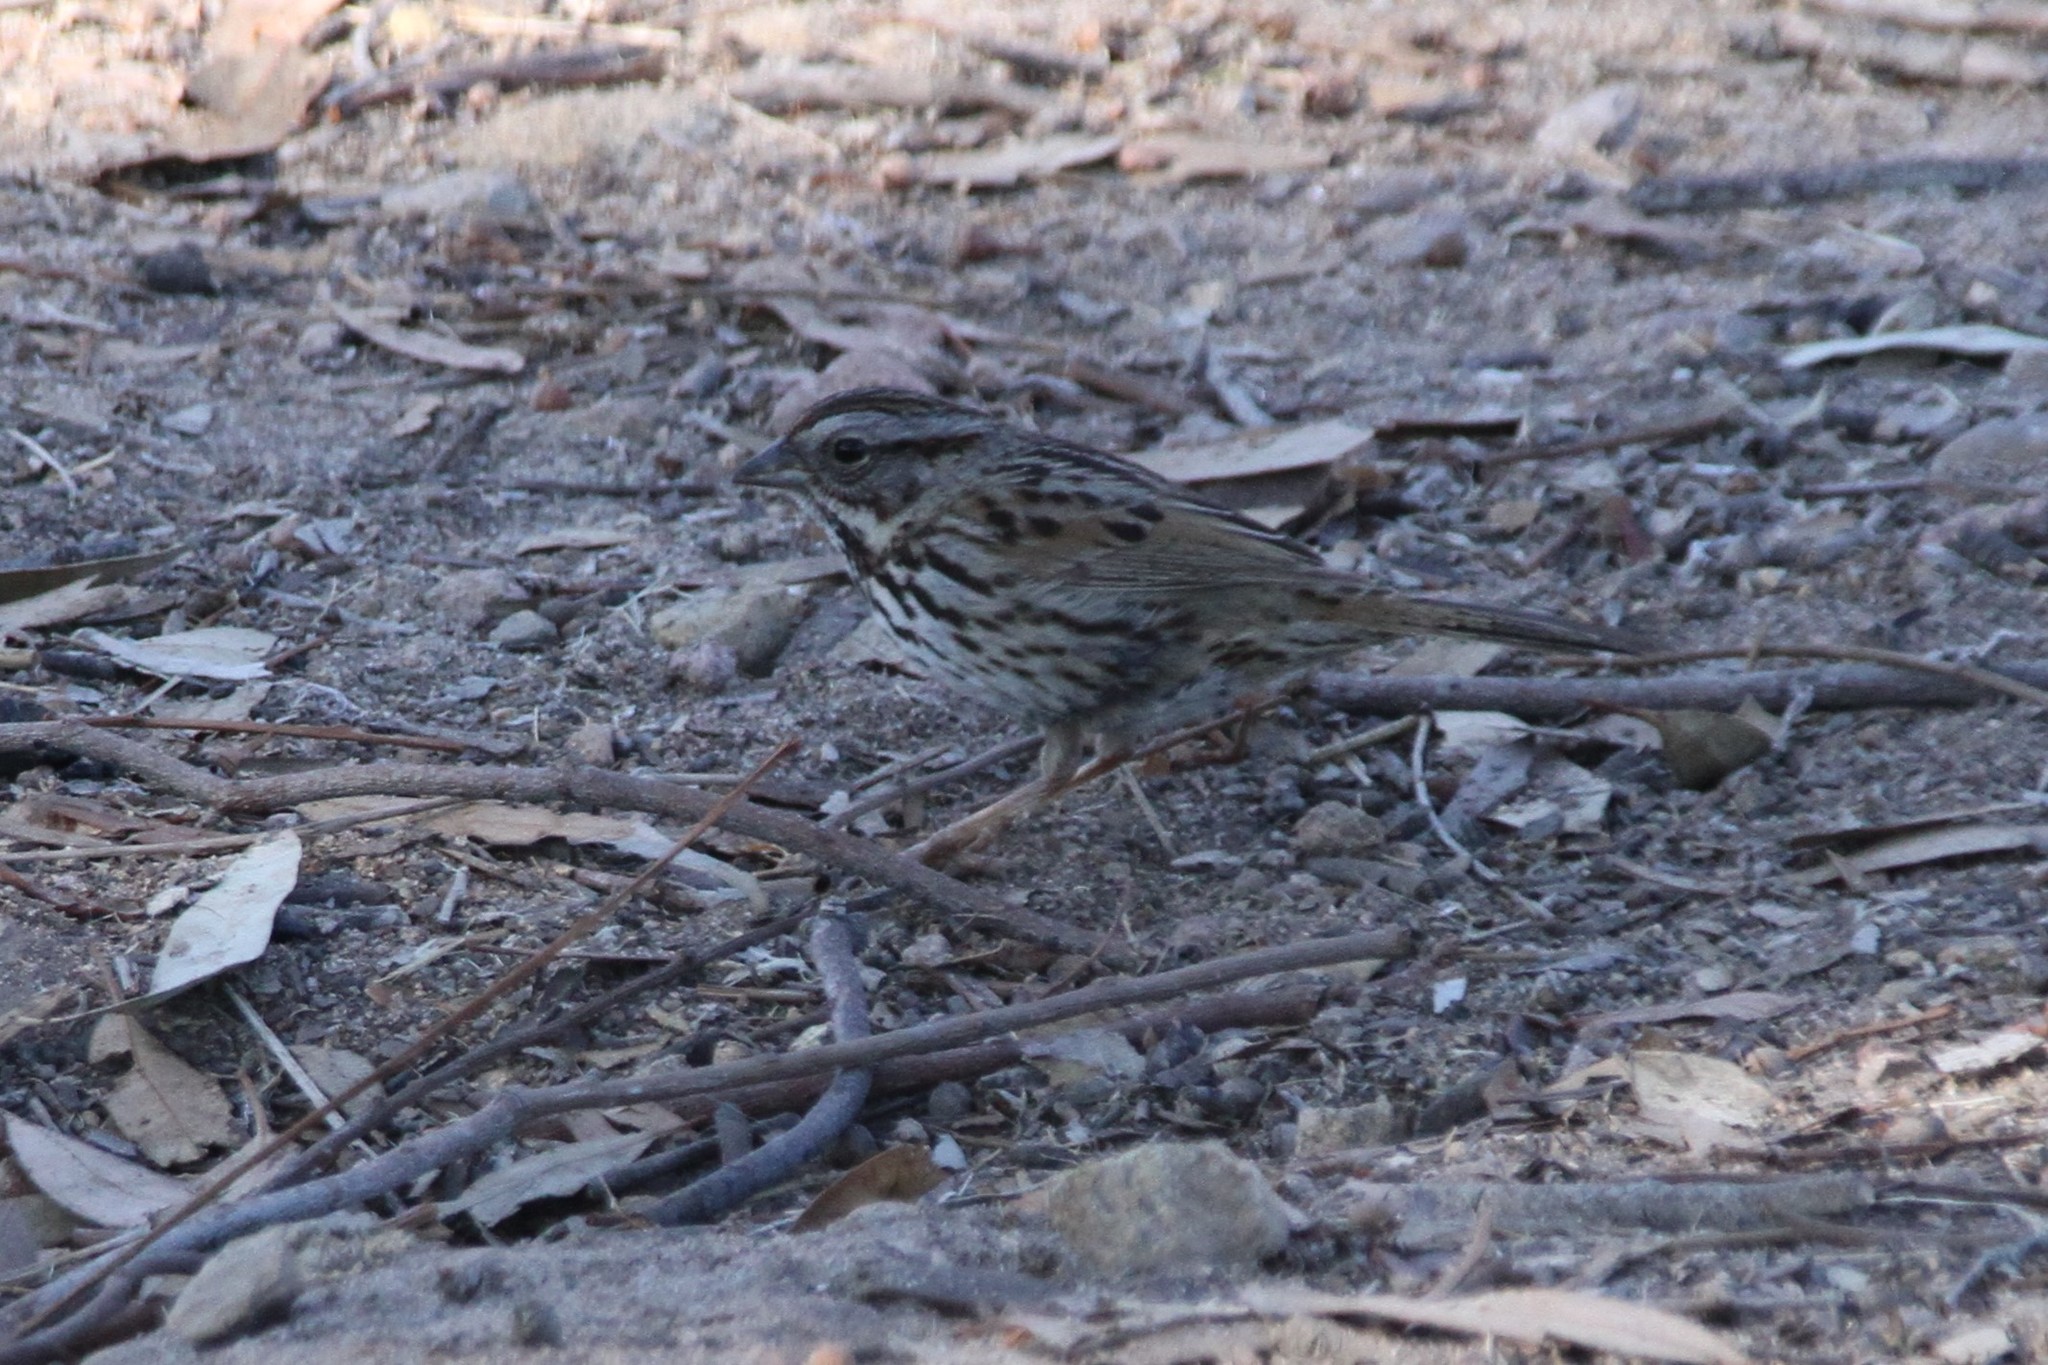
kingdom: Animalia
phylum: Chordata
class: Aves
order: Passeriformes
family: Passerellidae
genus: Melospiza
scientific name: Melospiza melodia
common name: Song sparrow
